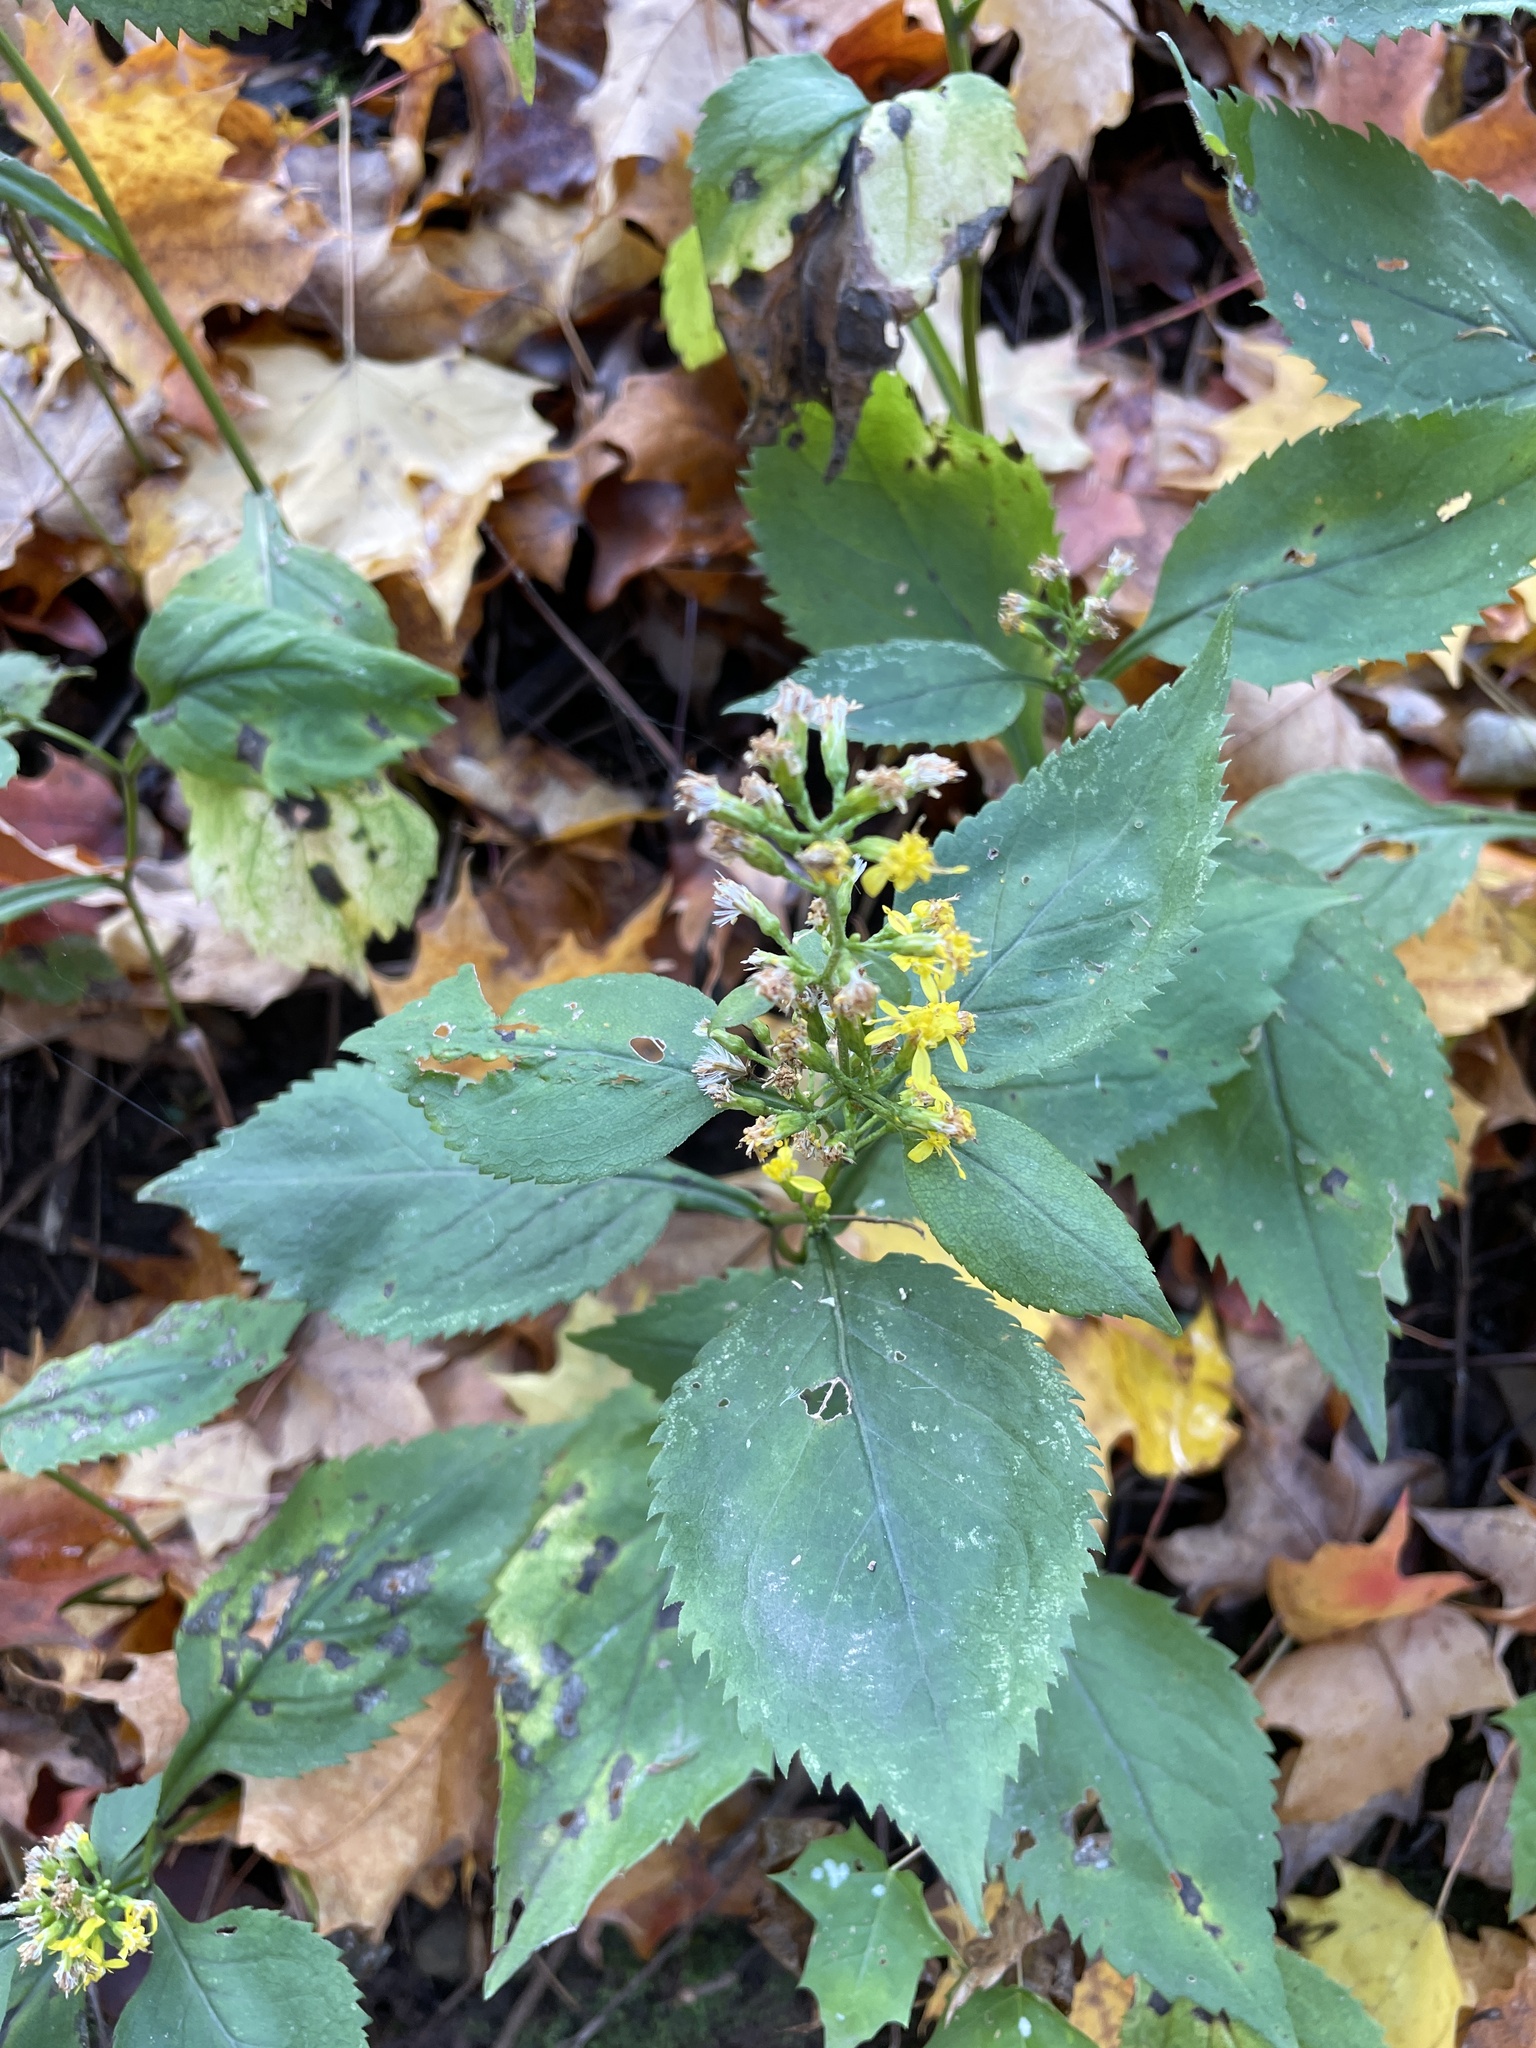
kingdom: Plantae
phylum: Tracheophyta
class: Magnoliopsida
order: Asterales
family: Asteraceae
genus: Solidago
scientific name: Solidago flexicaulis
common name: Zig-zag goldenrod
